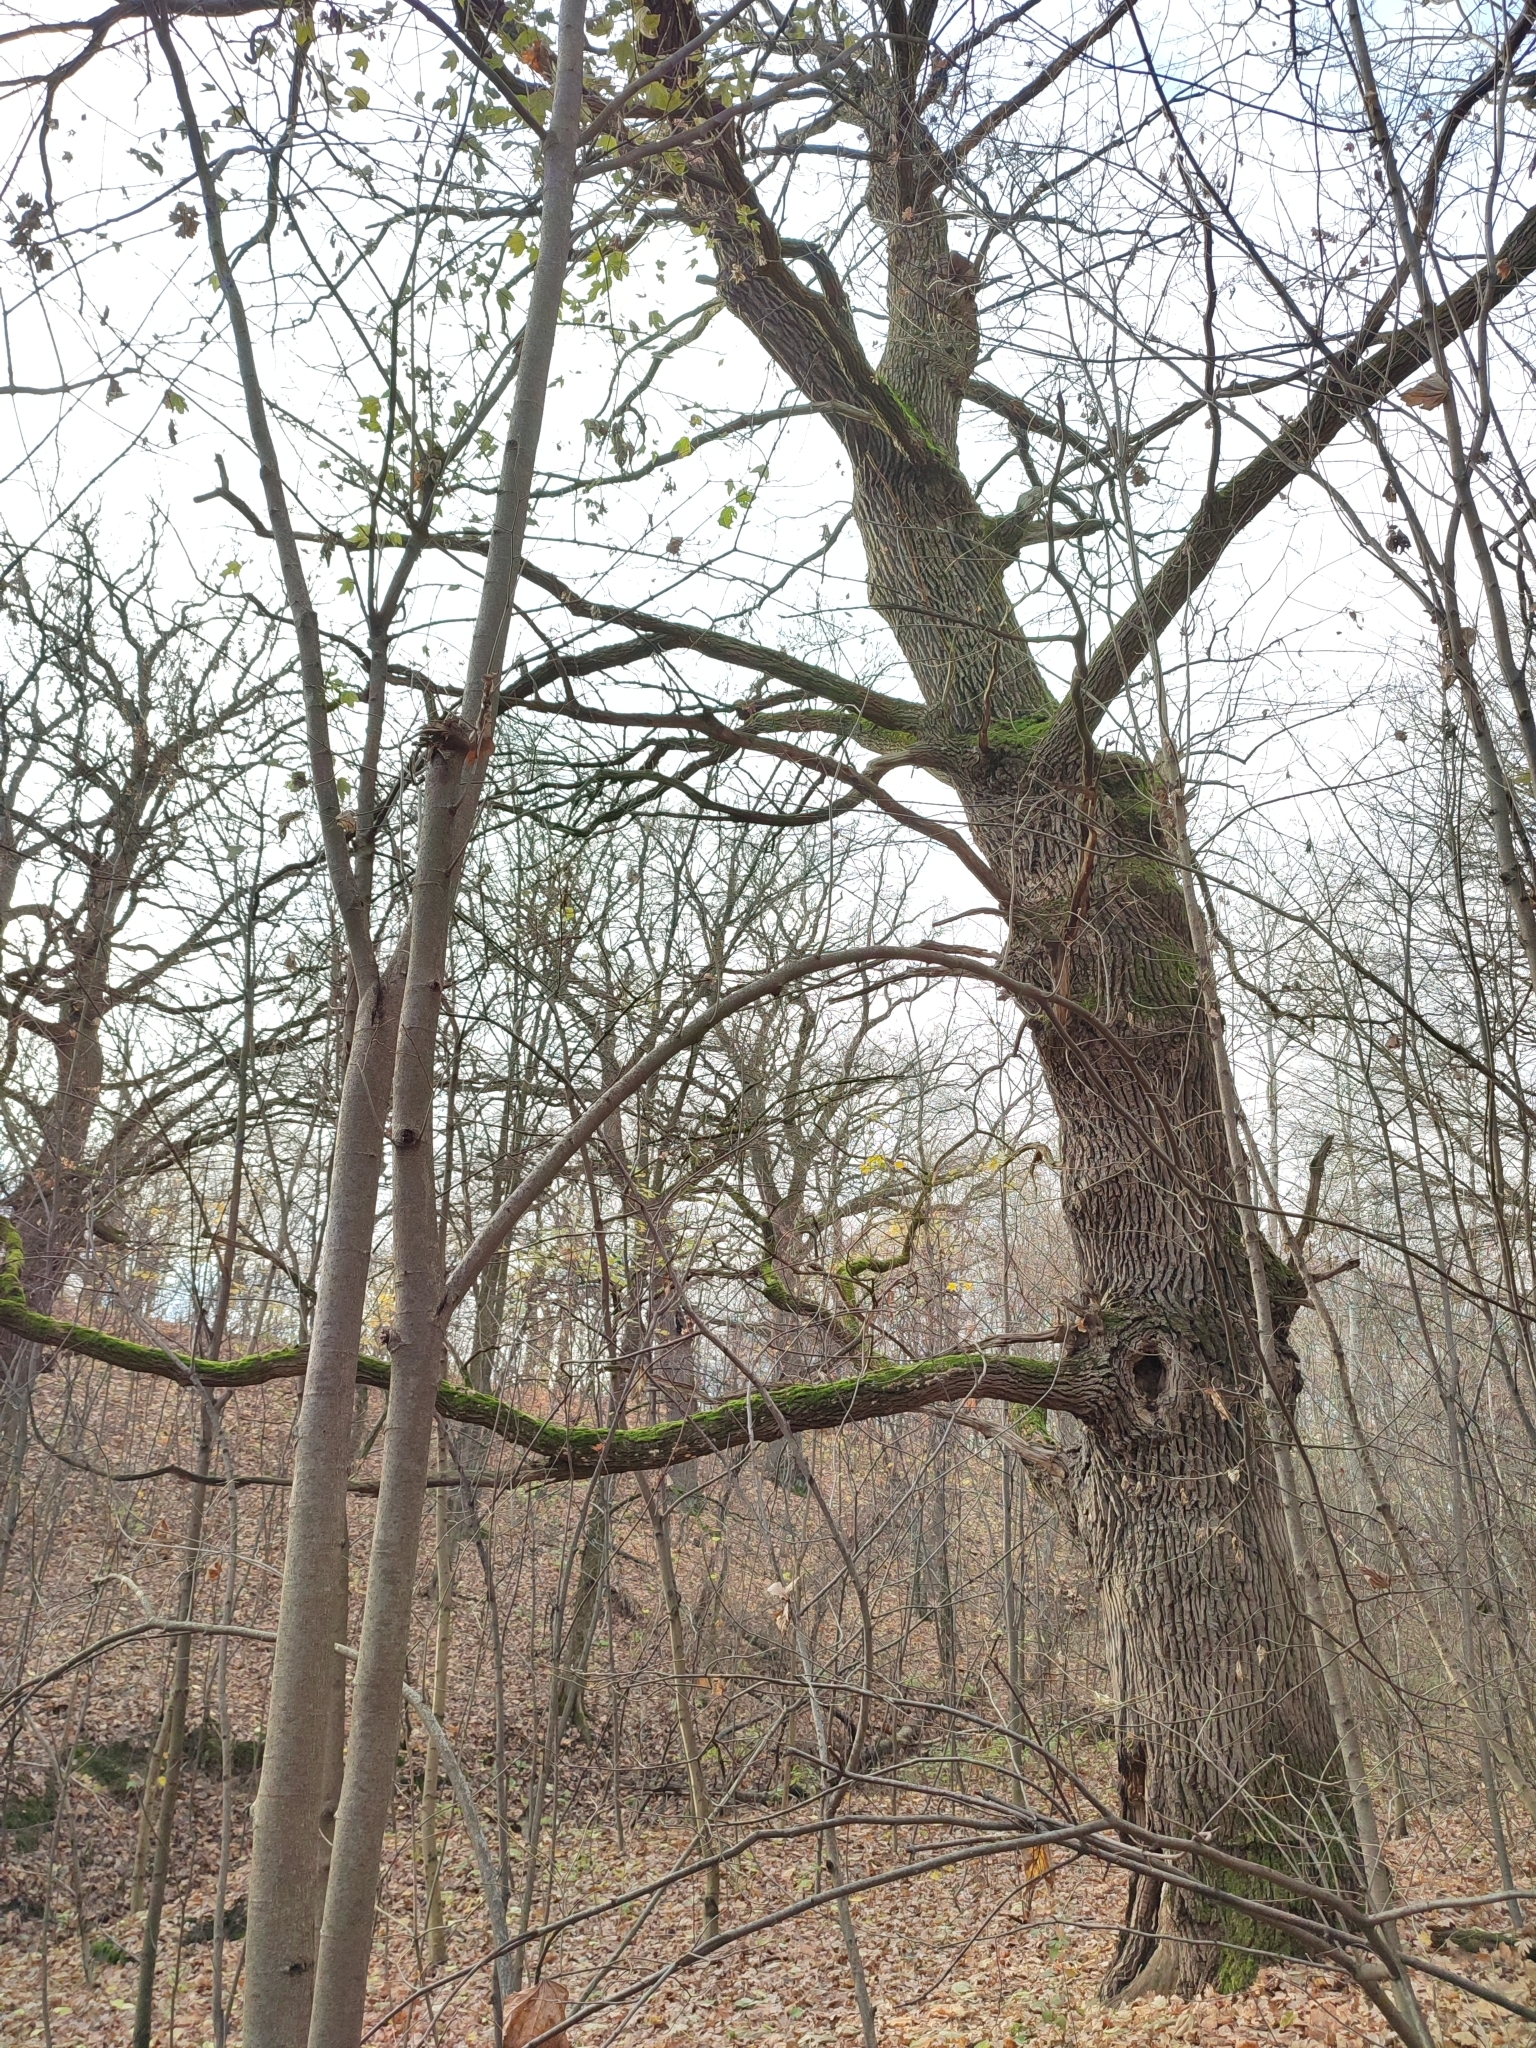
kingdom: Plantae
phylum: Tracheophyta
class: Magnoliopsida
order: Fagales
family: Fagaceae
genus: Quercus
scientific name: Quercus robur
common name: Pedunculate oak
